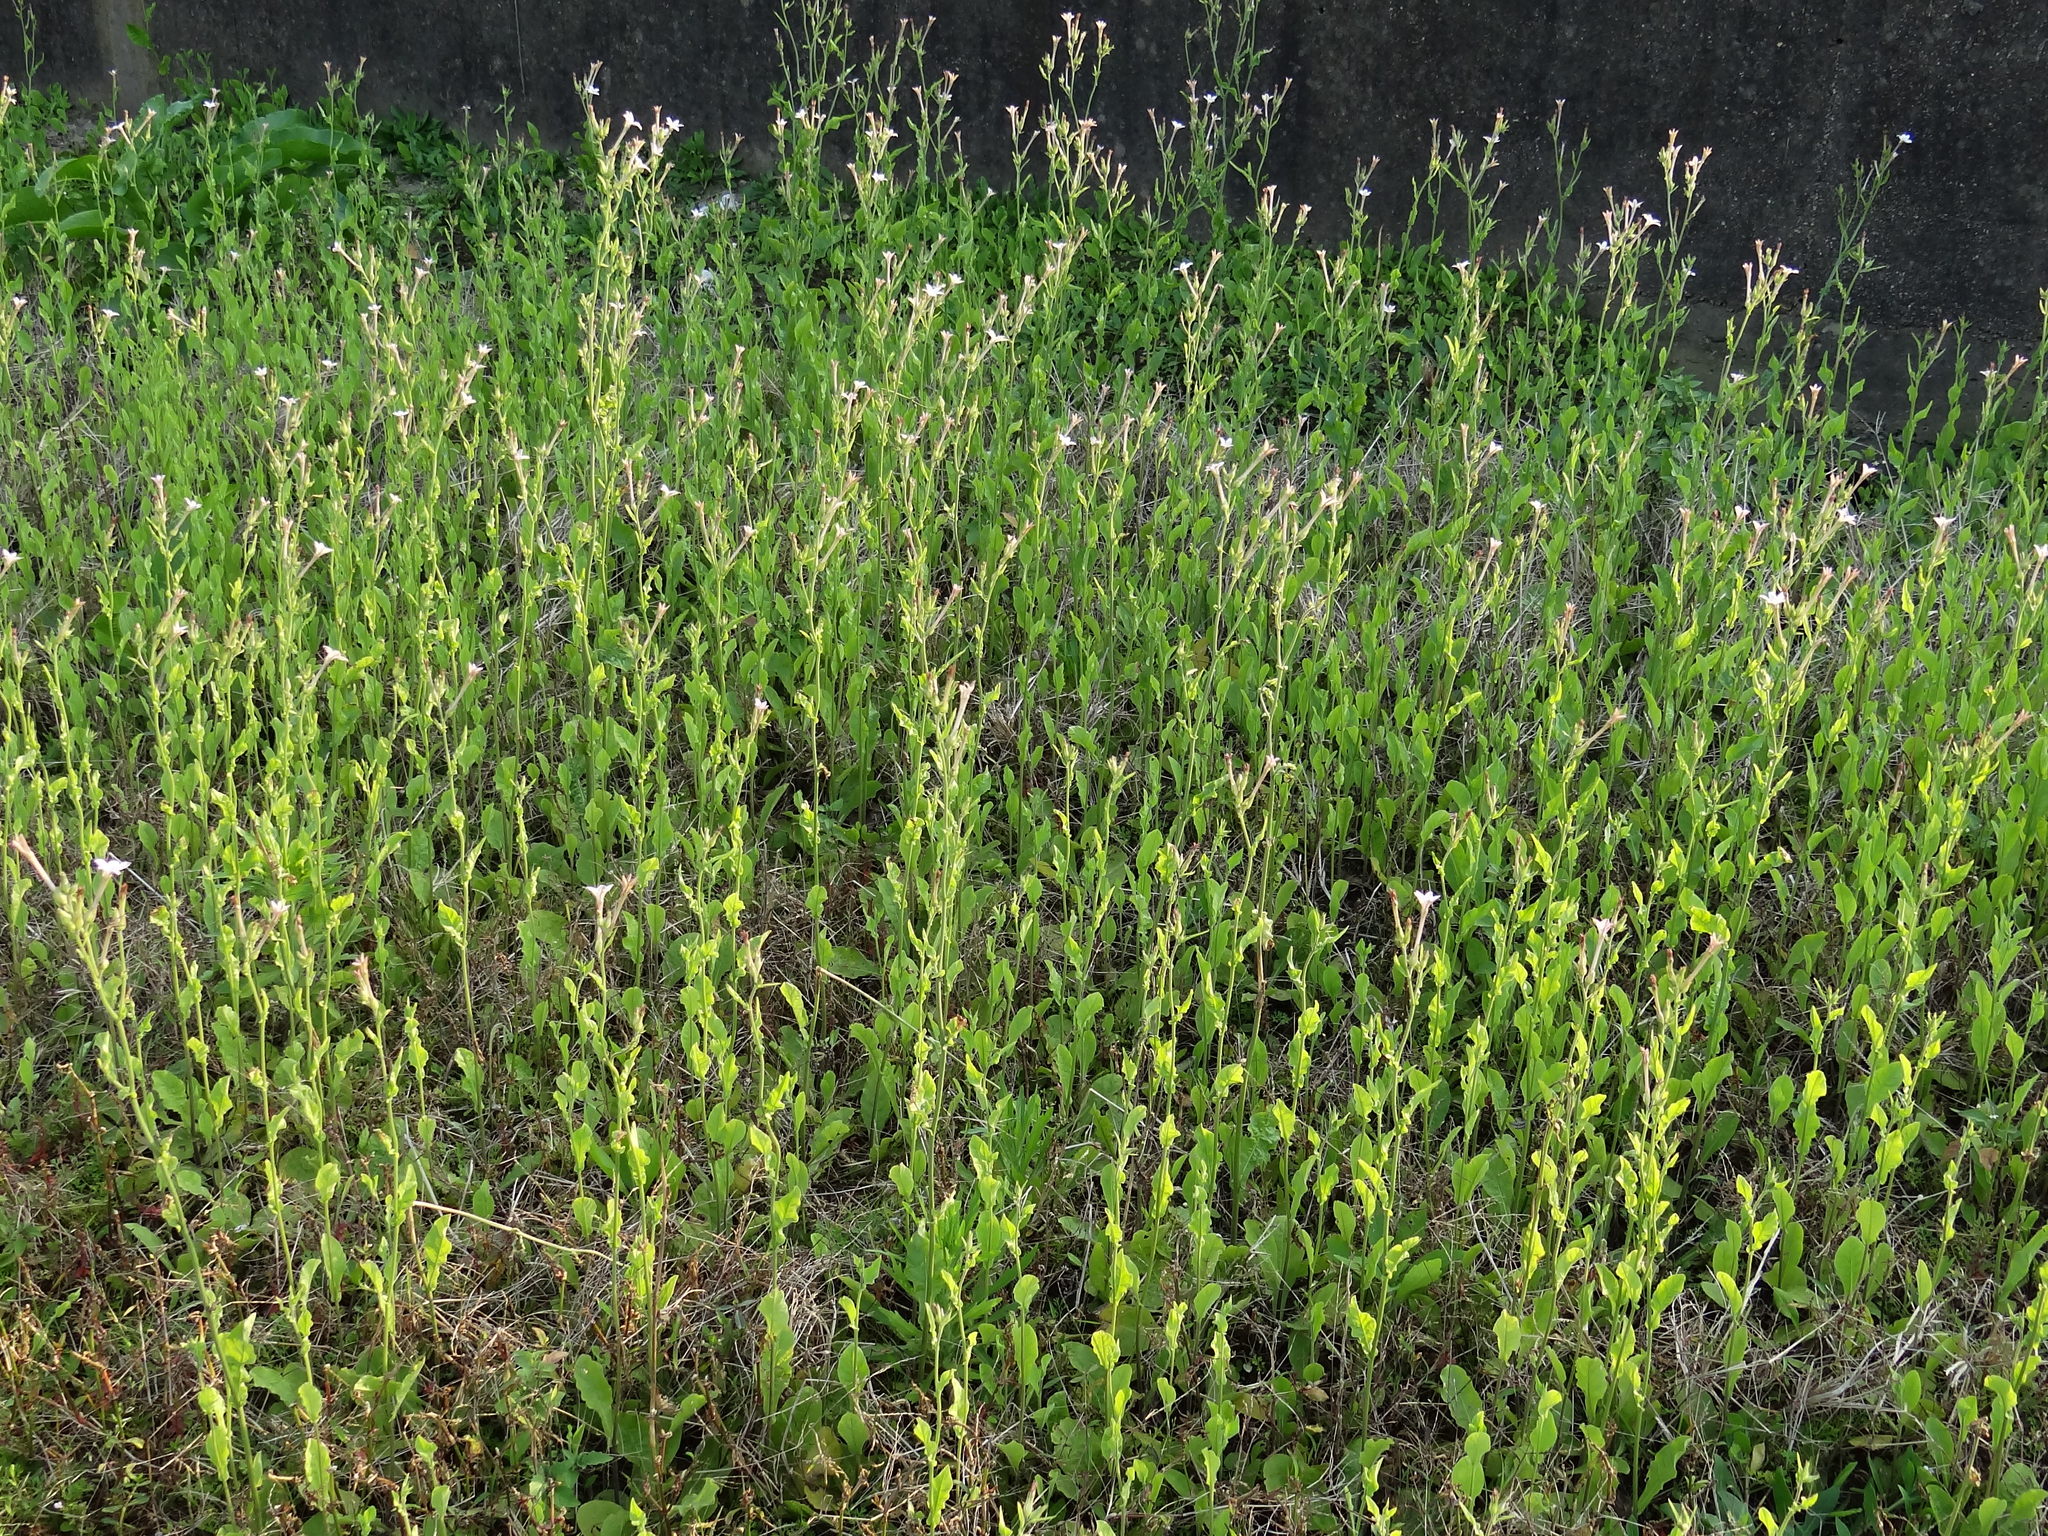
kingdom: Plantae
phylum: Tracheophyta
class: Magnoliopsida
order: Solanales
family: Solanaceae
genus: Nicotiana
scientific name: Nicotiana plumbaginifolia
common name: Tex-mex tobacco
